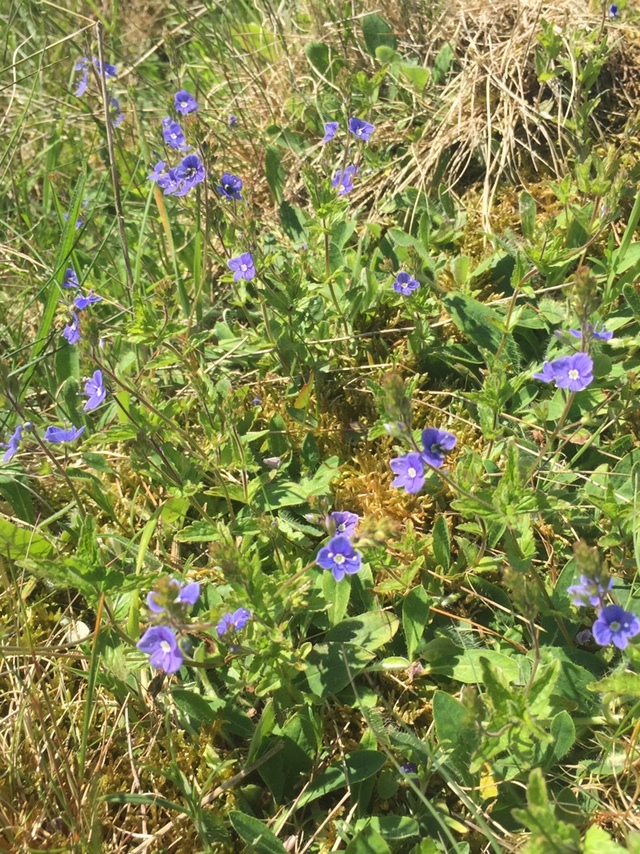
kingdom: Plantae
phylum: Tracheophyta
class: Magnoliopsida
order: Lamiales
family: Plantaginaceae
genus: Veronica
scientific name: Veronica chamaedrys
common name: Germander speedwell
